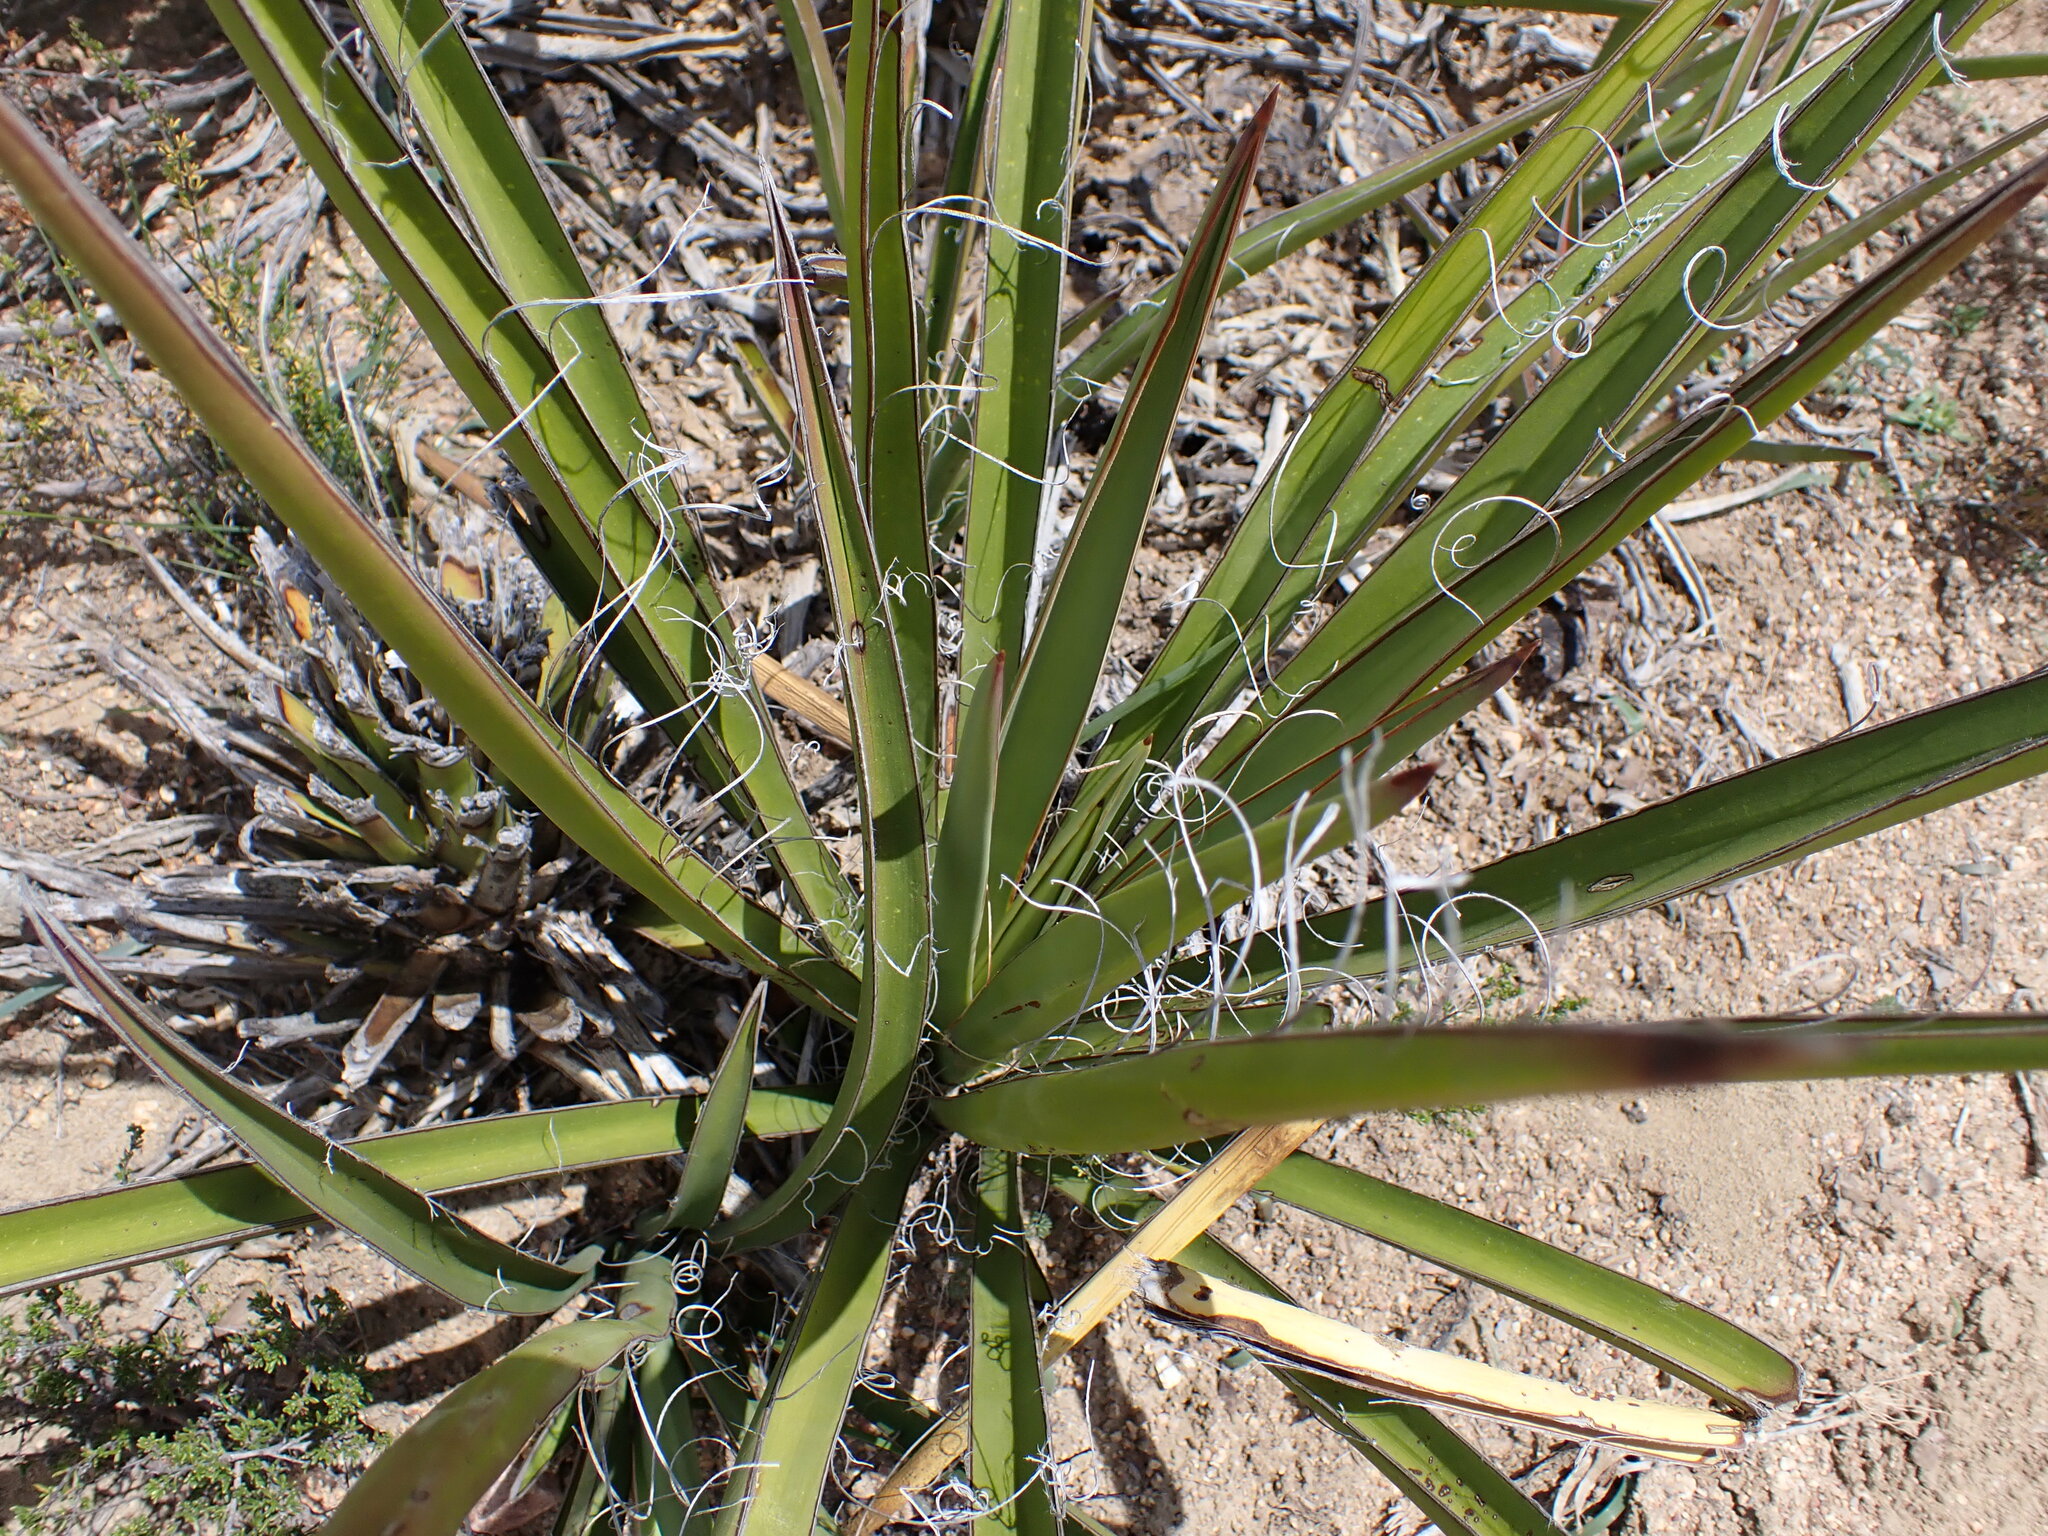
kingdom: Plantae
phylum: Tracheophyta
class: Liliopsida
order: Asparagales
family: Asparagaceae
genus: Yucca
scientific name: Yucca schidigera
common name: Mojave yucca
